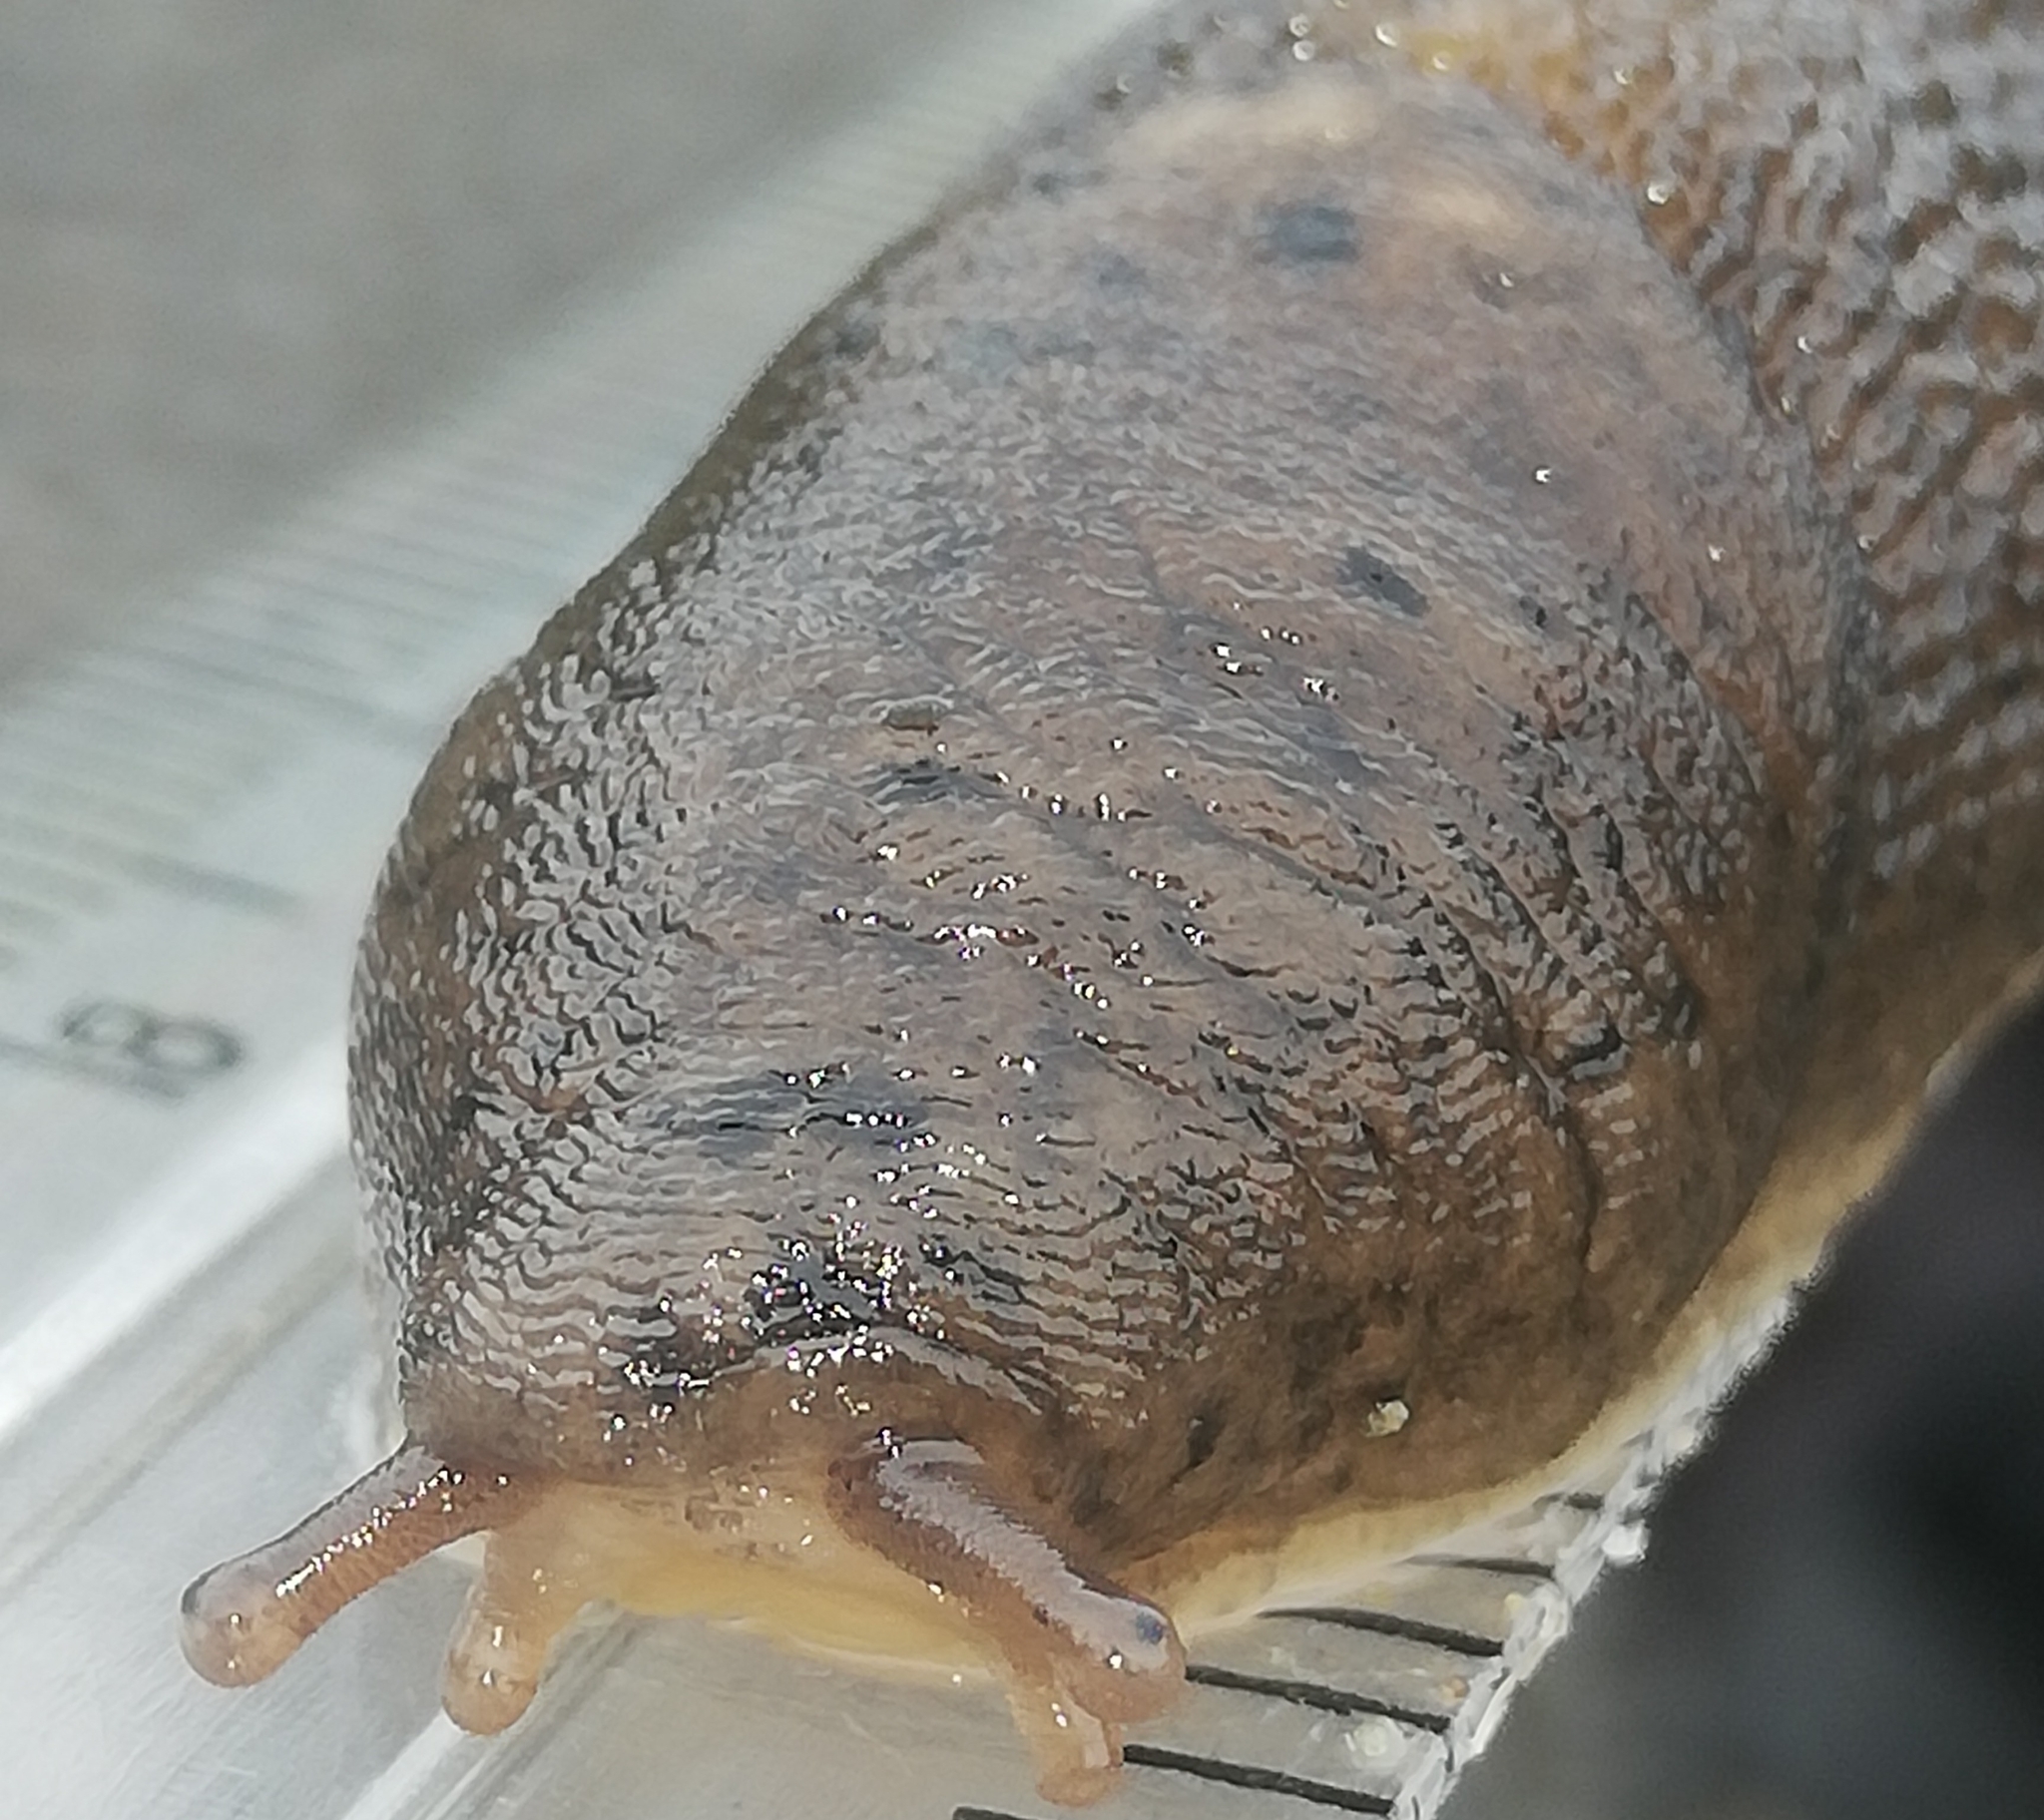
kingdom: Animalia
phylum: Mollusca
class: Gastropoda
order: Stylommatophora
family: Limacidae
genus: Limax
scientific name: Limax maximus
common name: Great grey slug
